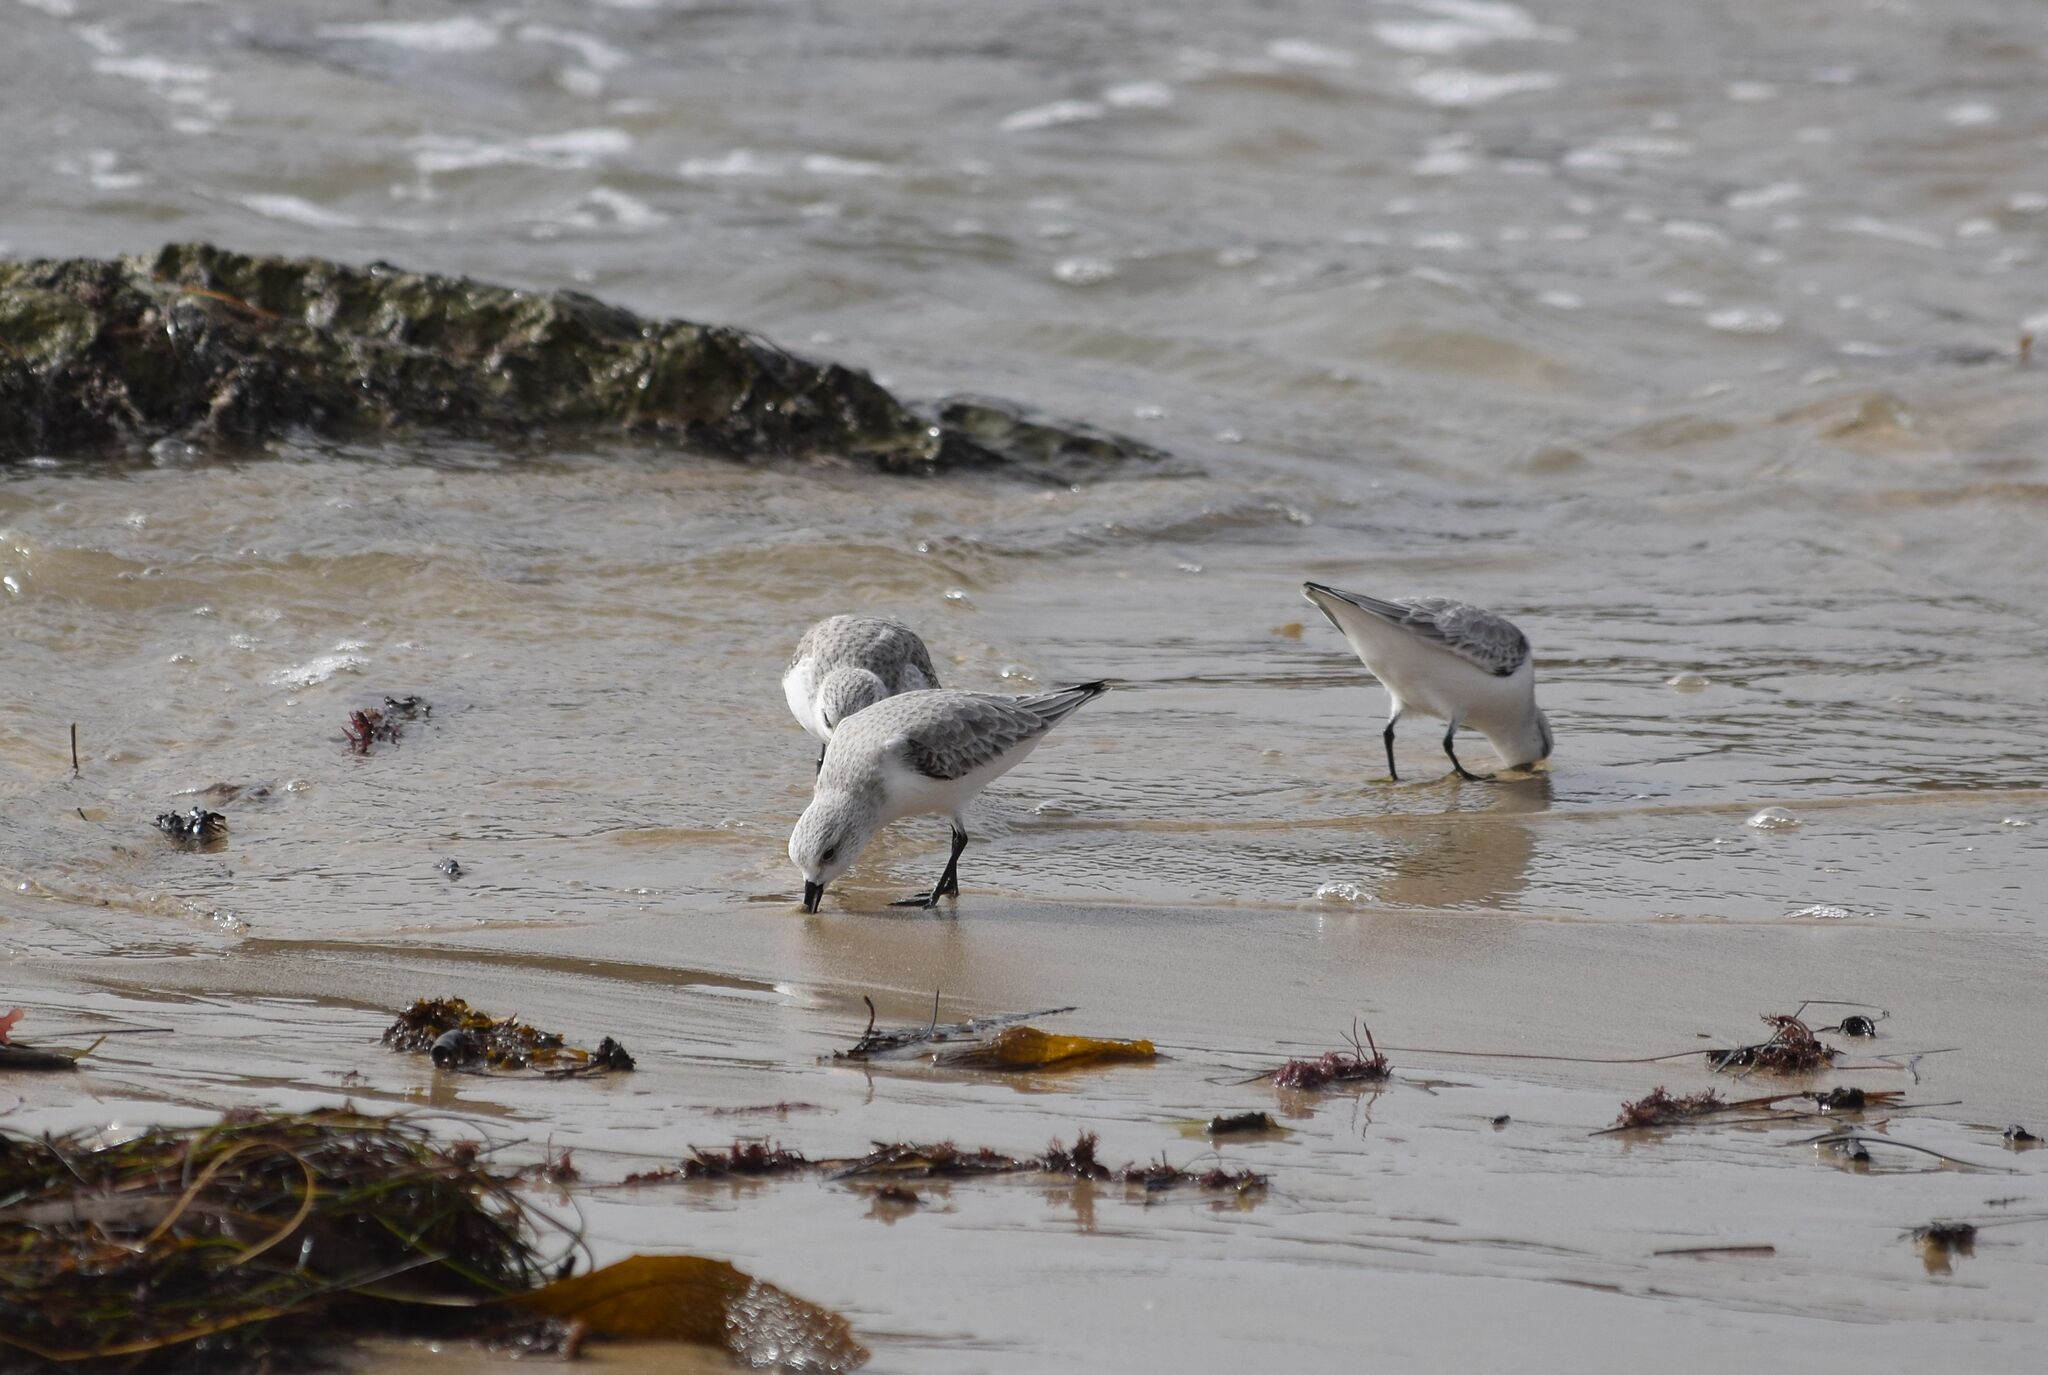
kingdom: Animalia
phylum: Chordata
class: Aves
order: Charadriiformes
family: Scolopacidae
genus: Calidris
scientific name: Calidris alba
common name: Sanderling
